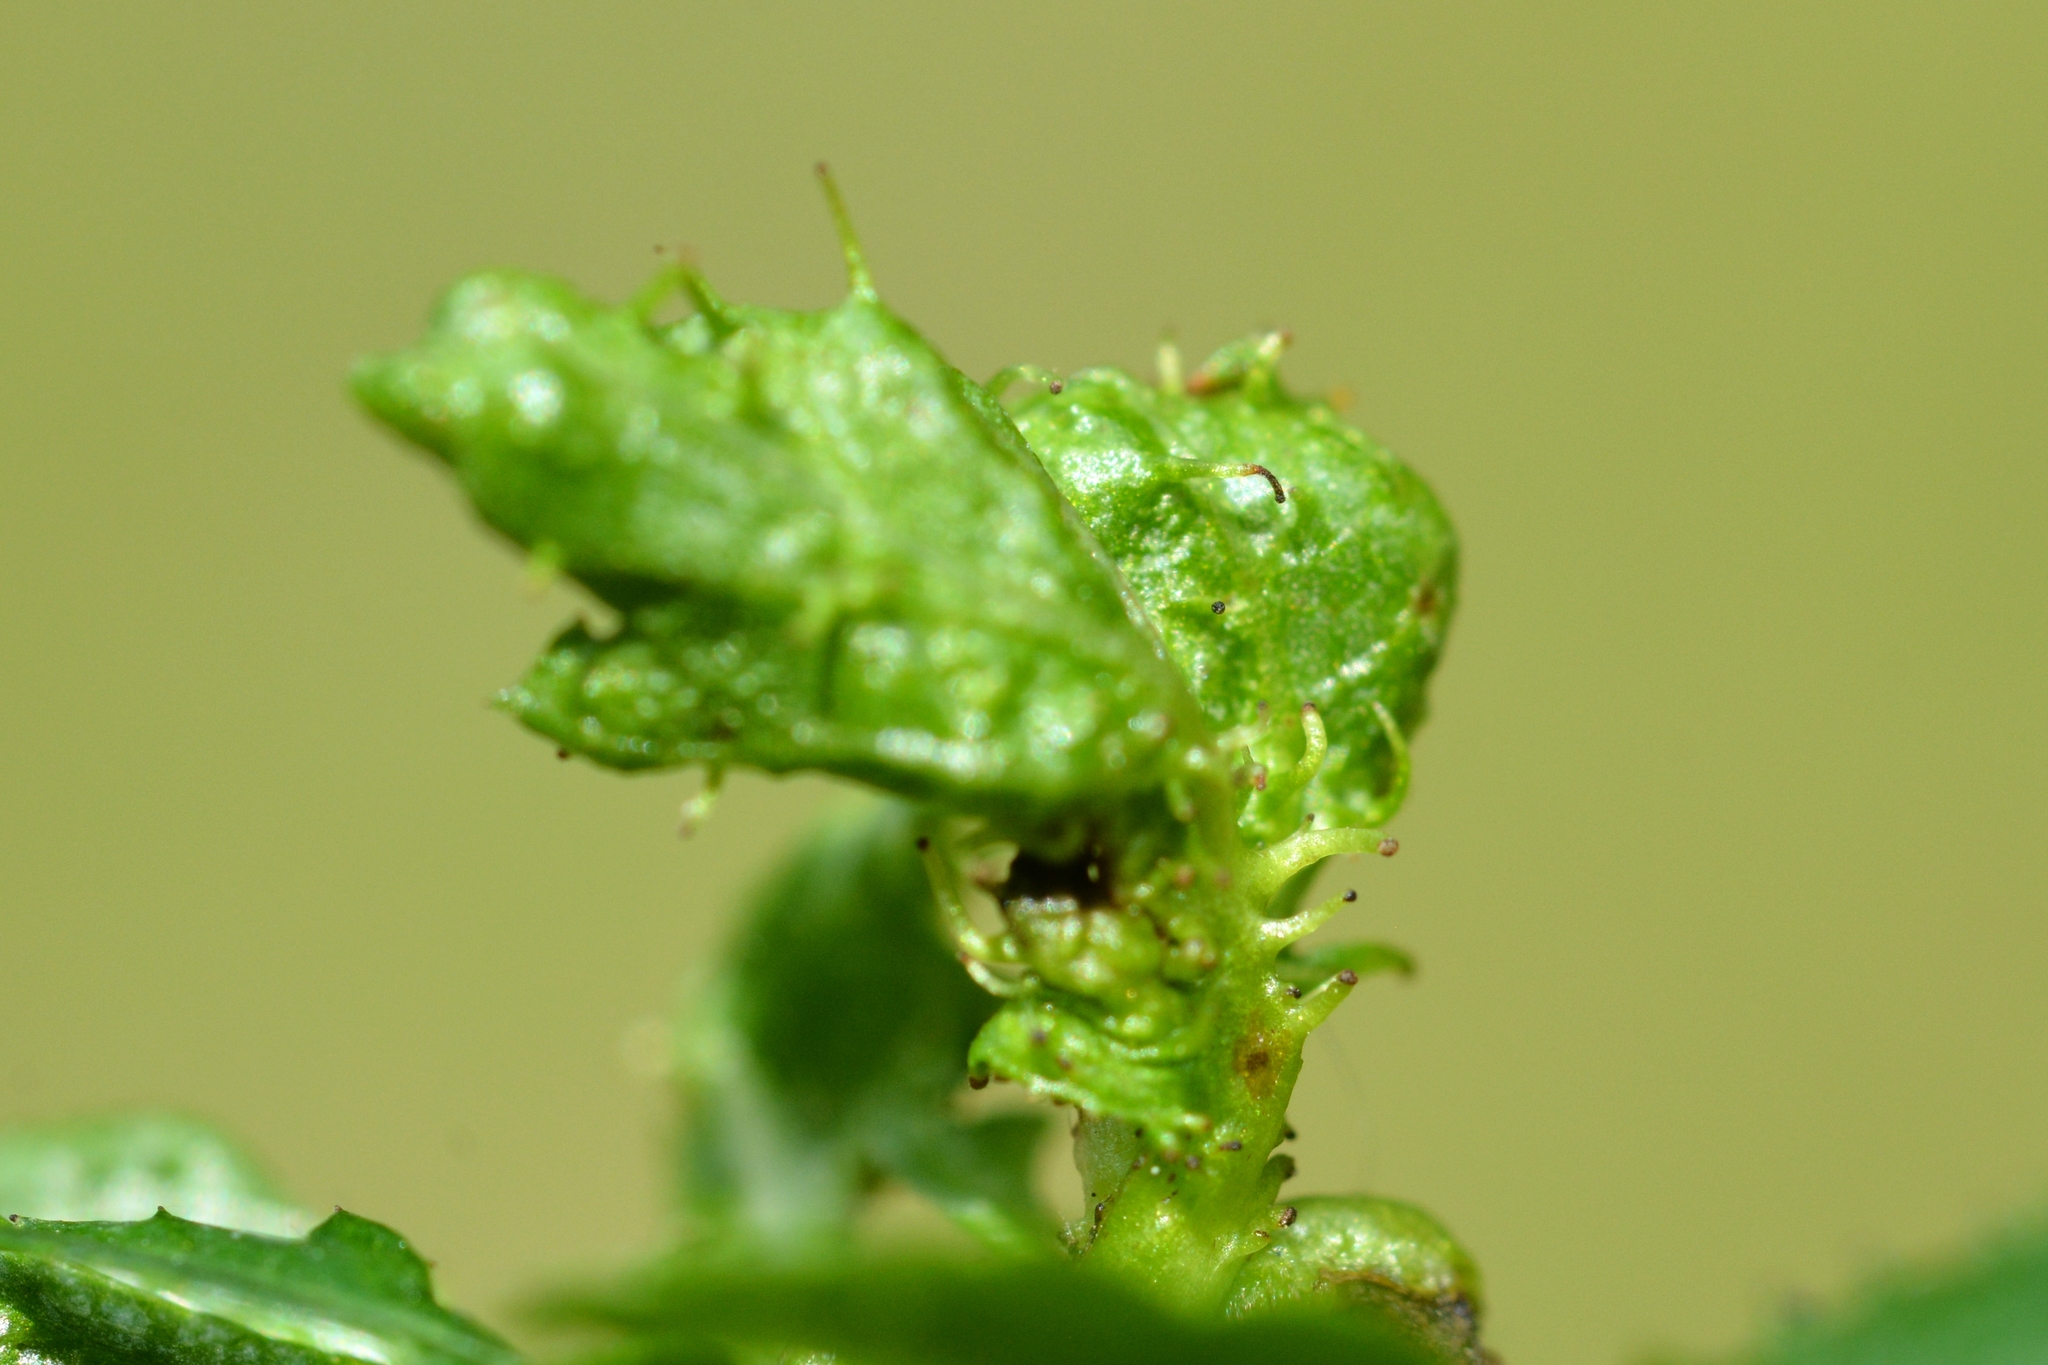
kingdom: Animalia
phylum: Arthropoda
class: Insecta
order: Diptera
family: Cecidomyiidae
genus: Dasineura
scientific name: Dasineura crataegi
